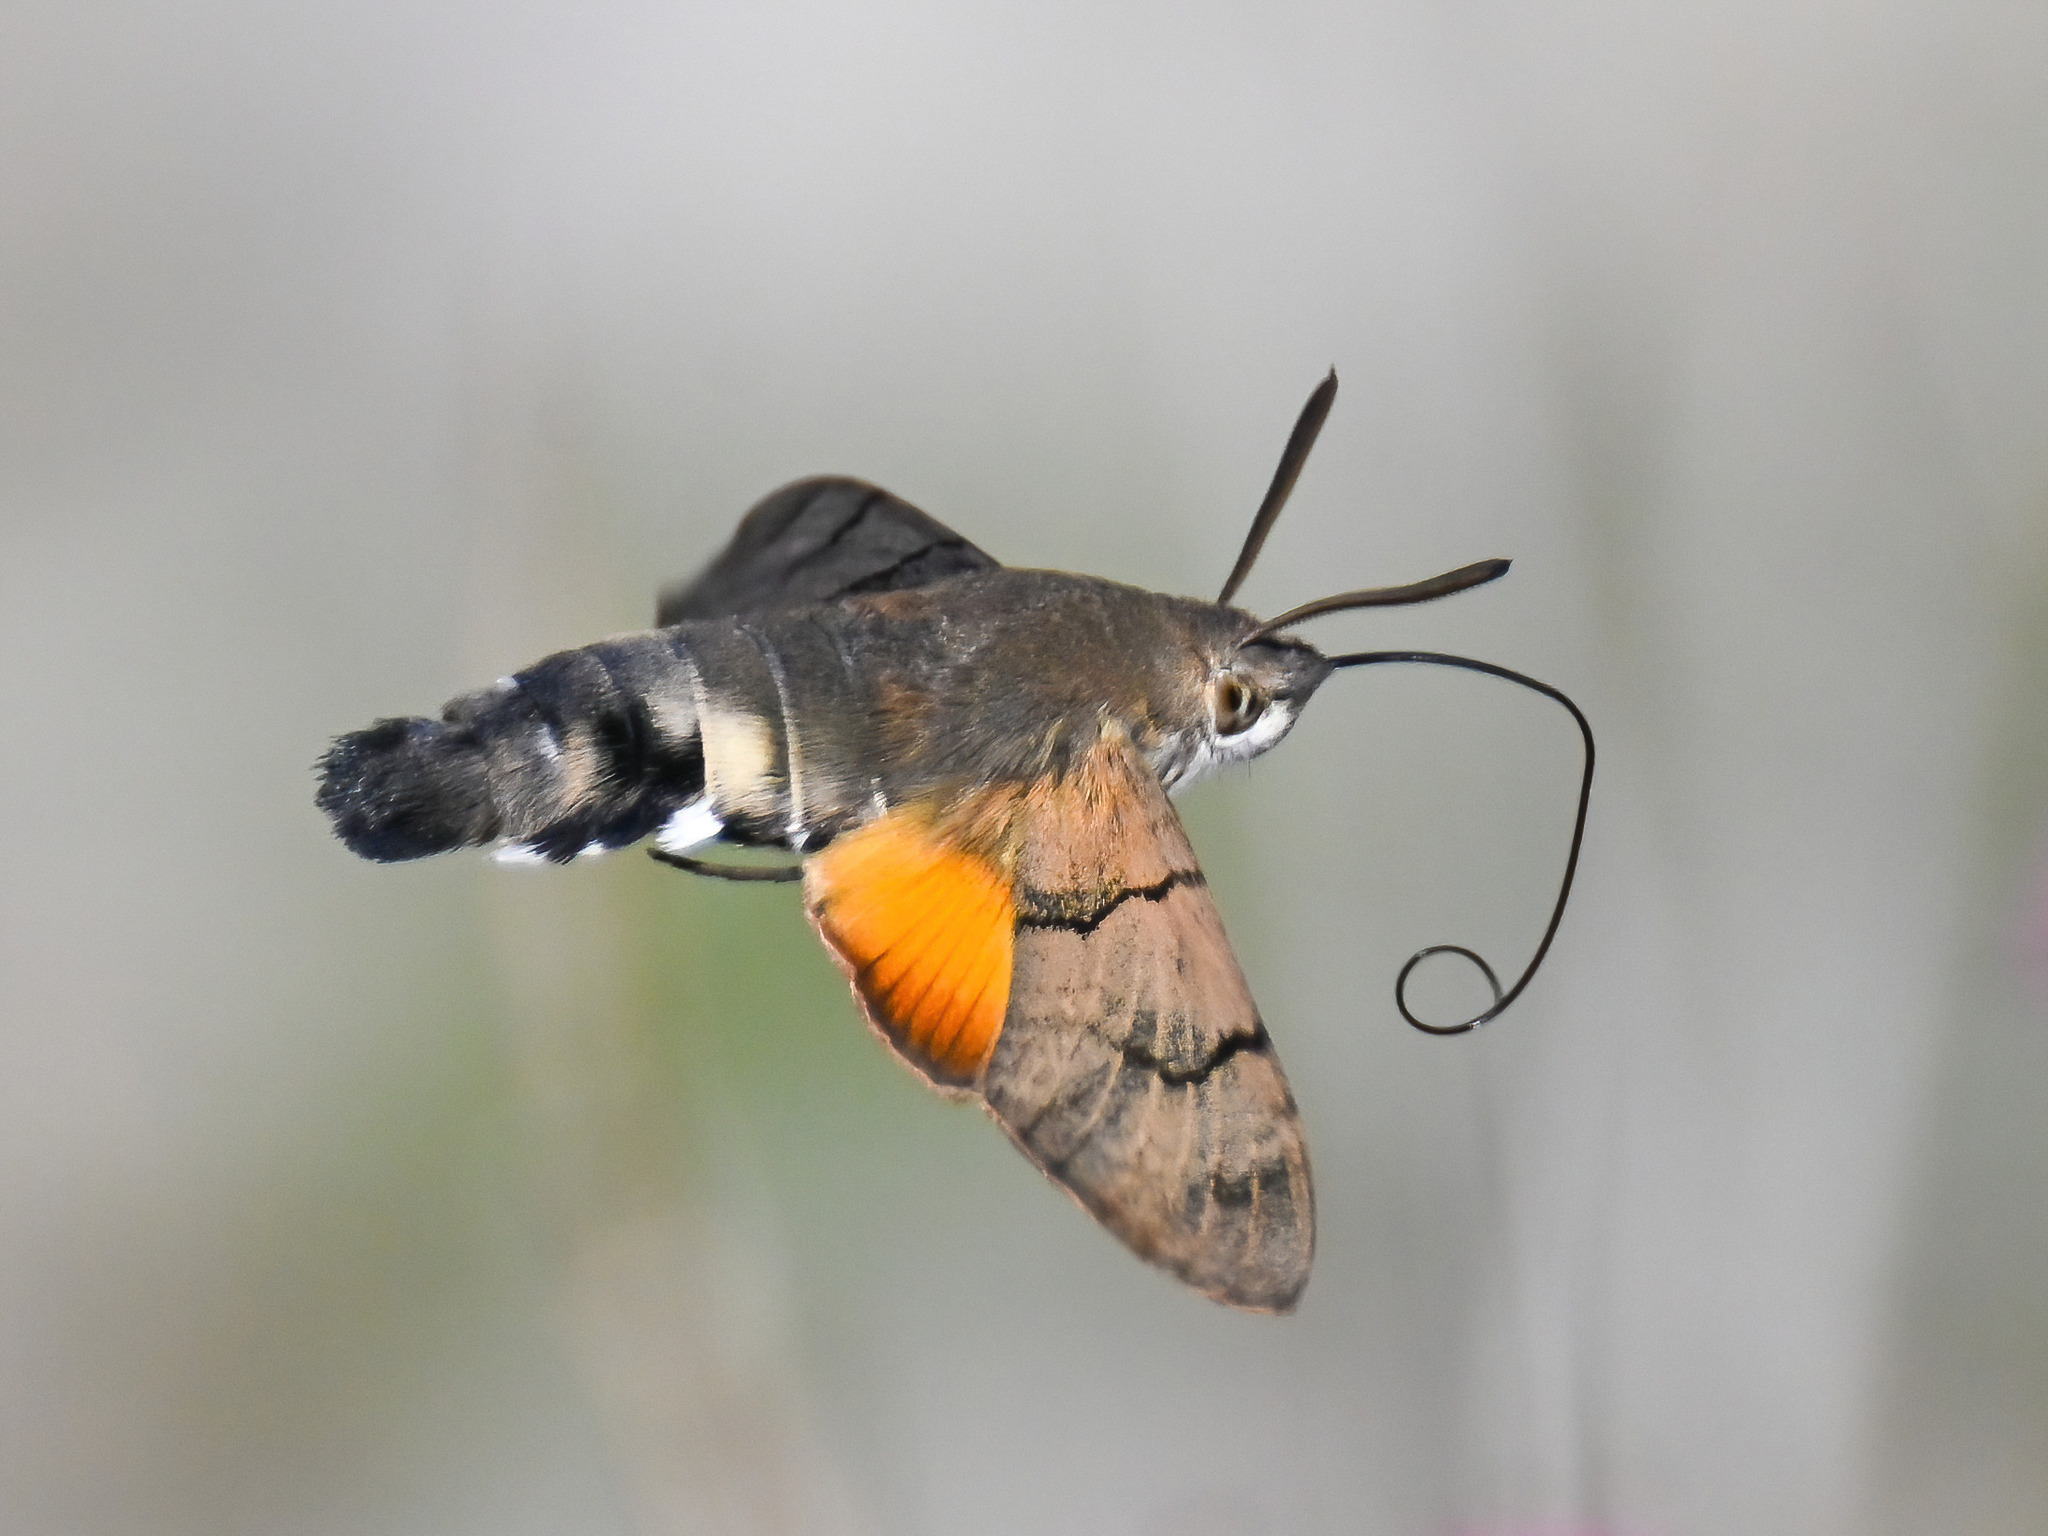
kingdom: Animalia
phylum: Arthropoda
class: Insecta
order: Lepidoptera
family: Sphingidae
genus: Macroglossum
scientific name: Macroglossum stellatarum
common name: Humming-bird hawk-moth
